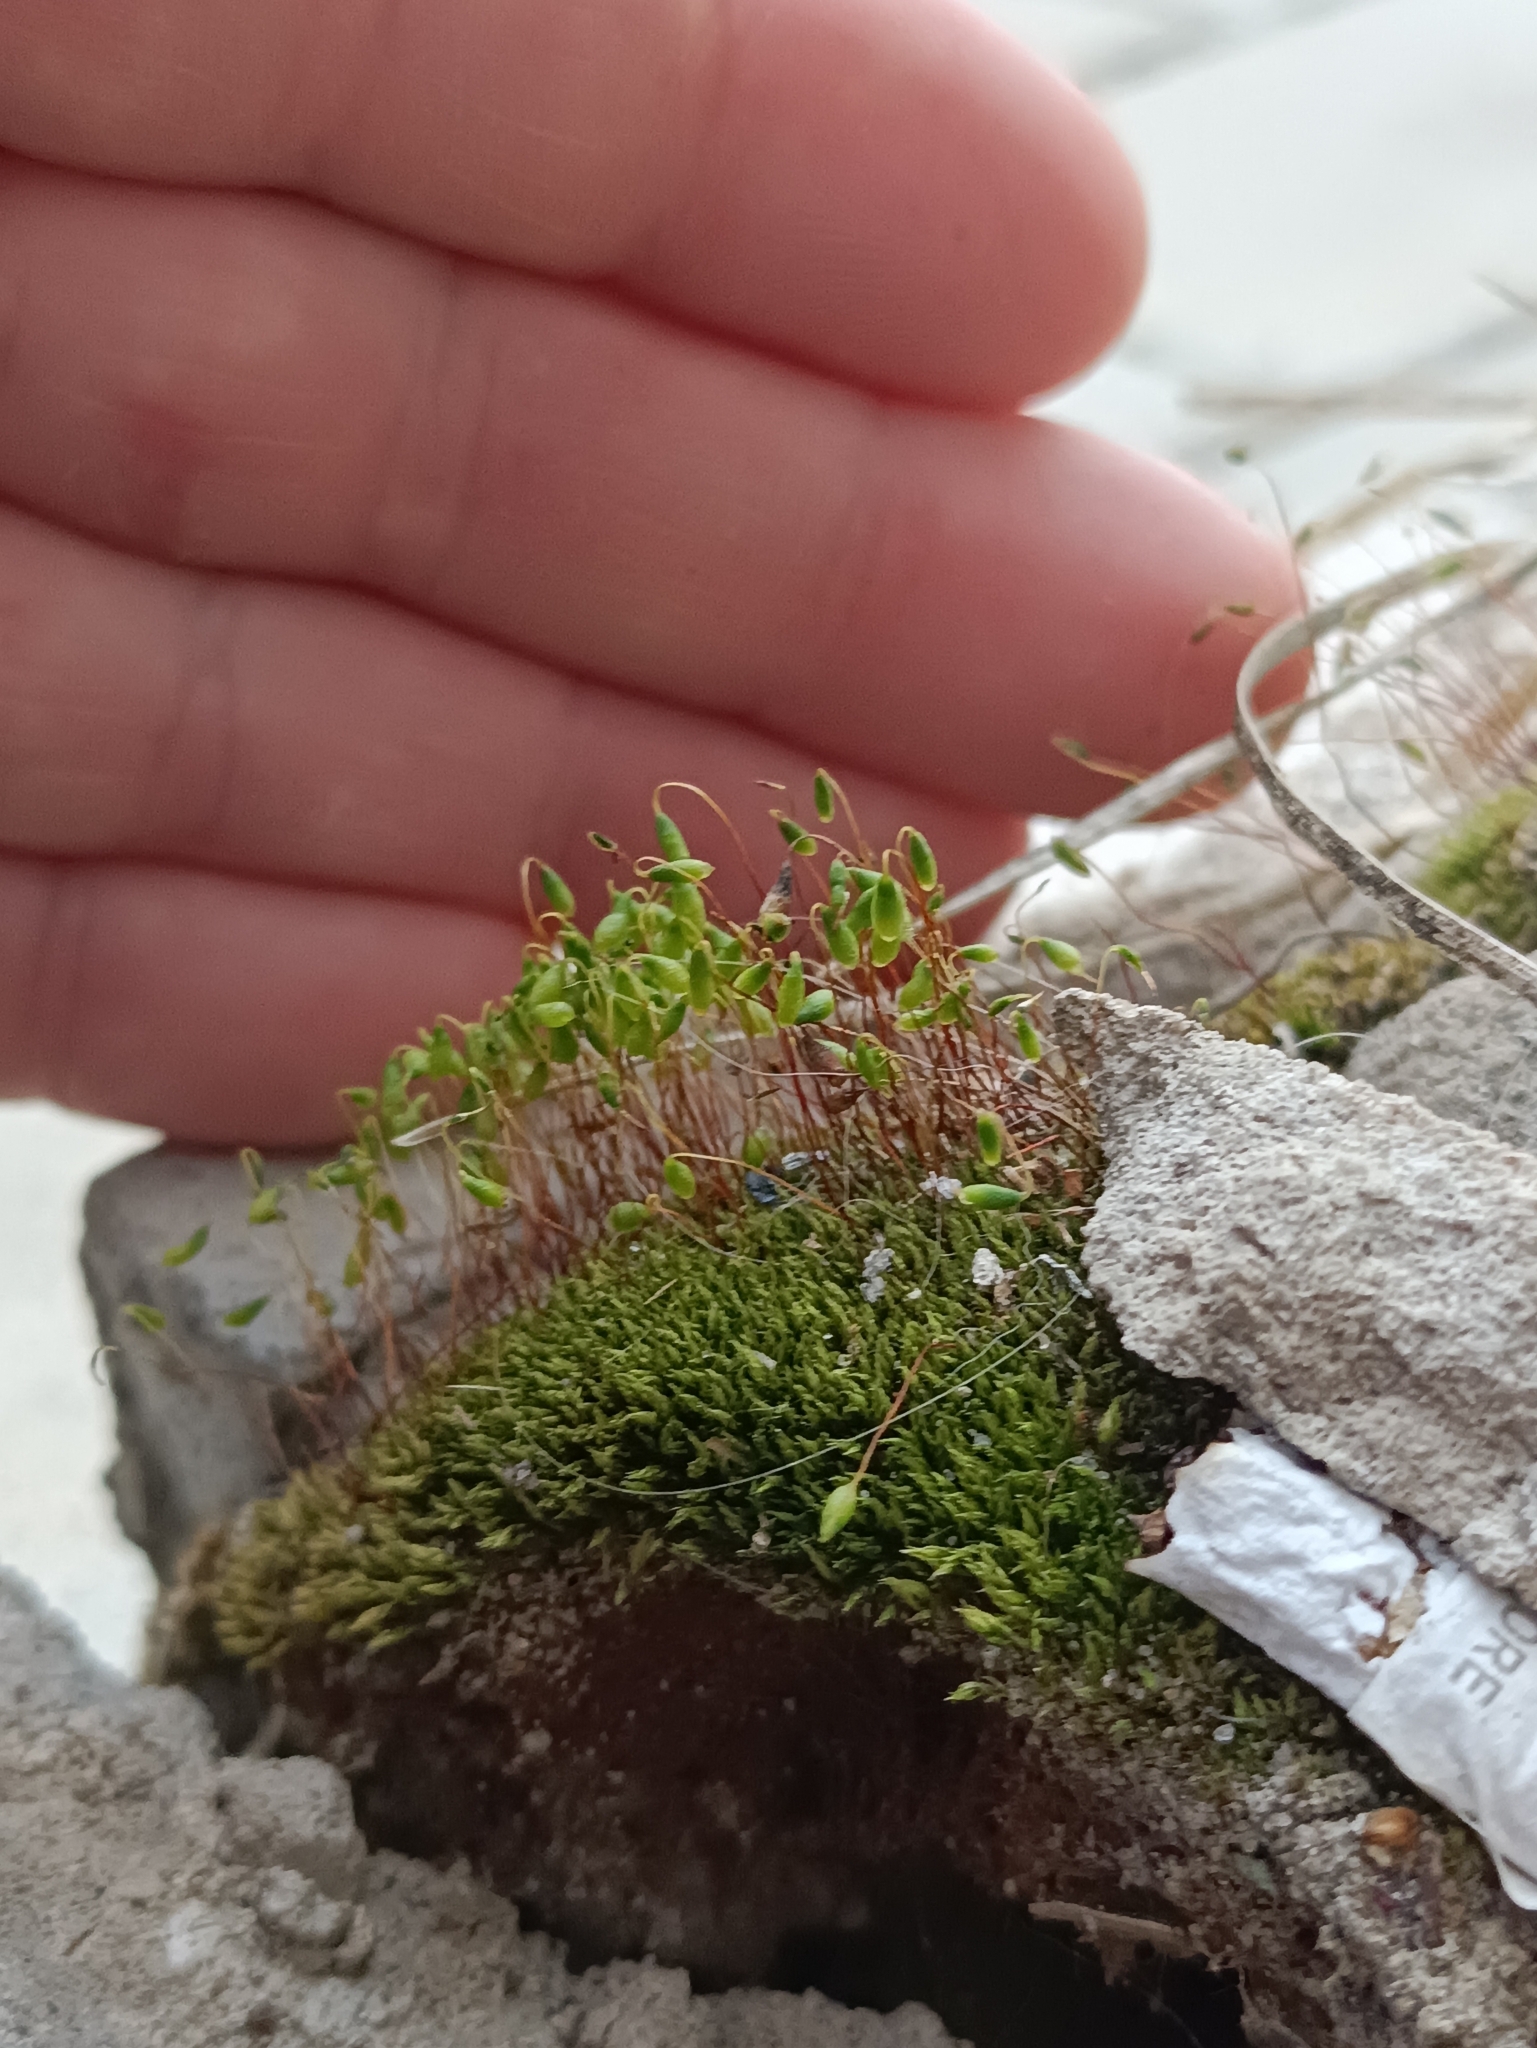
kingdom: Plantae
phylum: Bryophyta
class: Bryopsida
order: Bryales
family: Mniaceae
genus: Pohlia
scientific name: Pohlia nutans
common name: Nodding thread-moss
